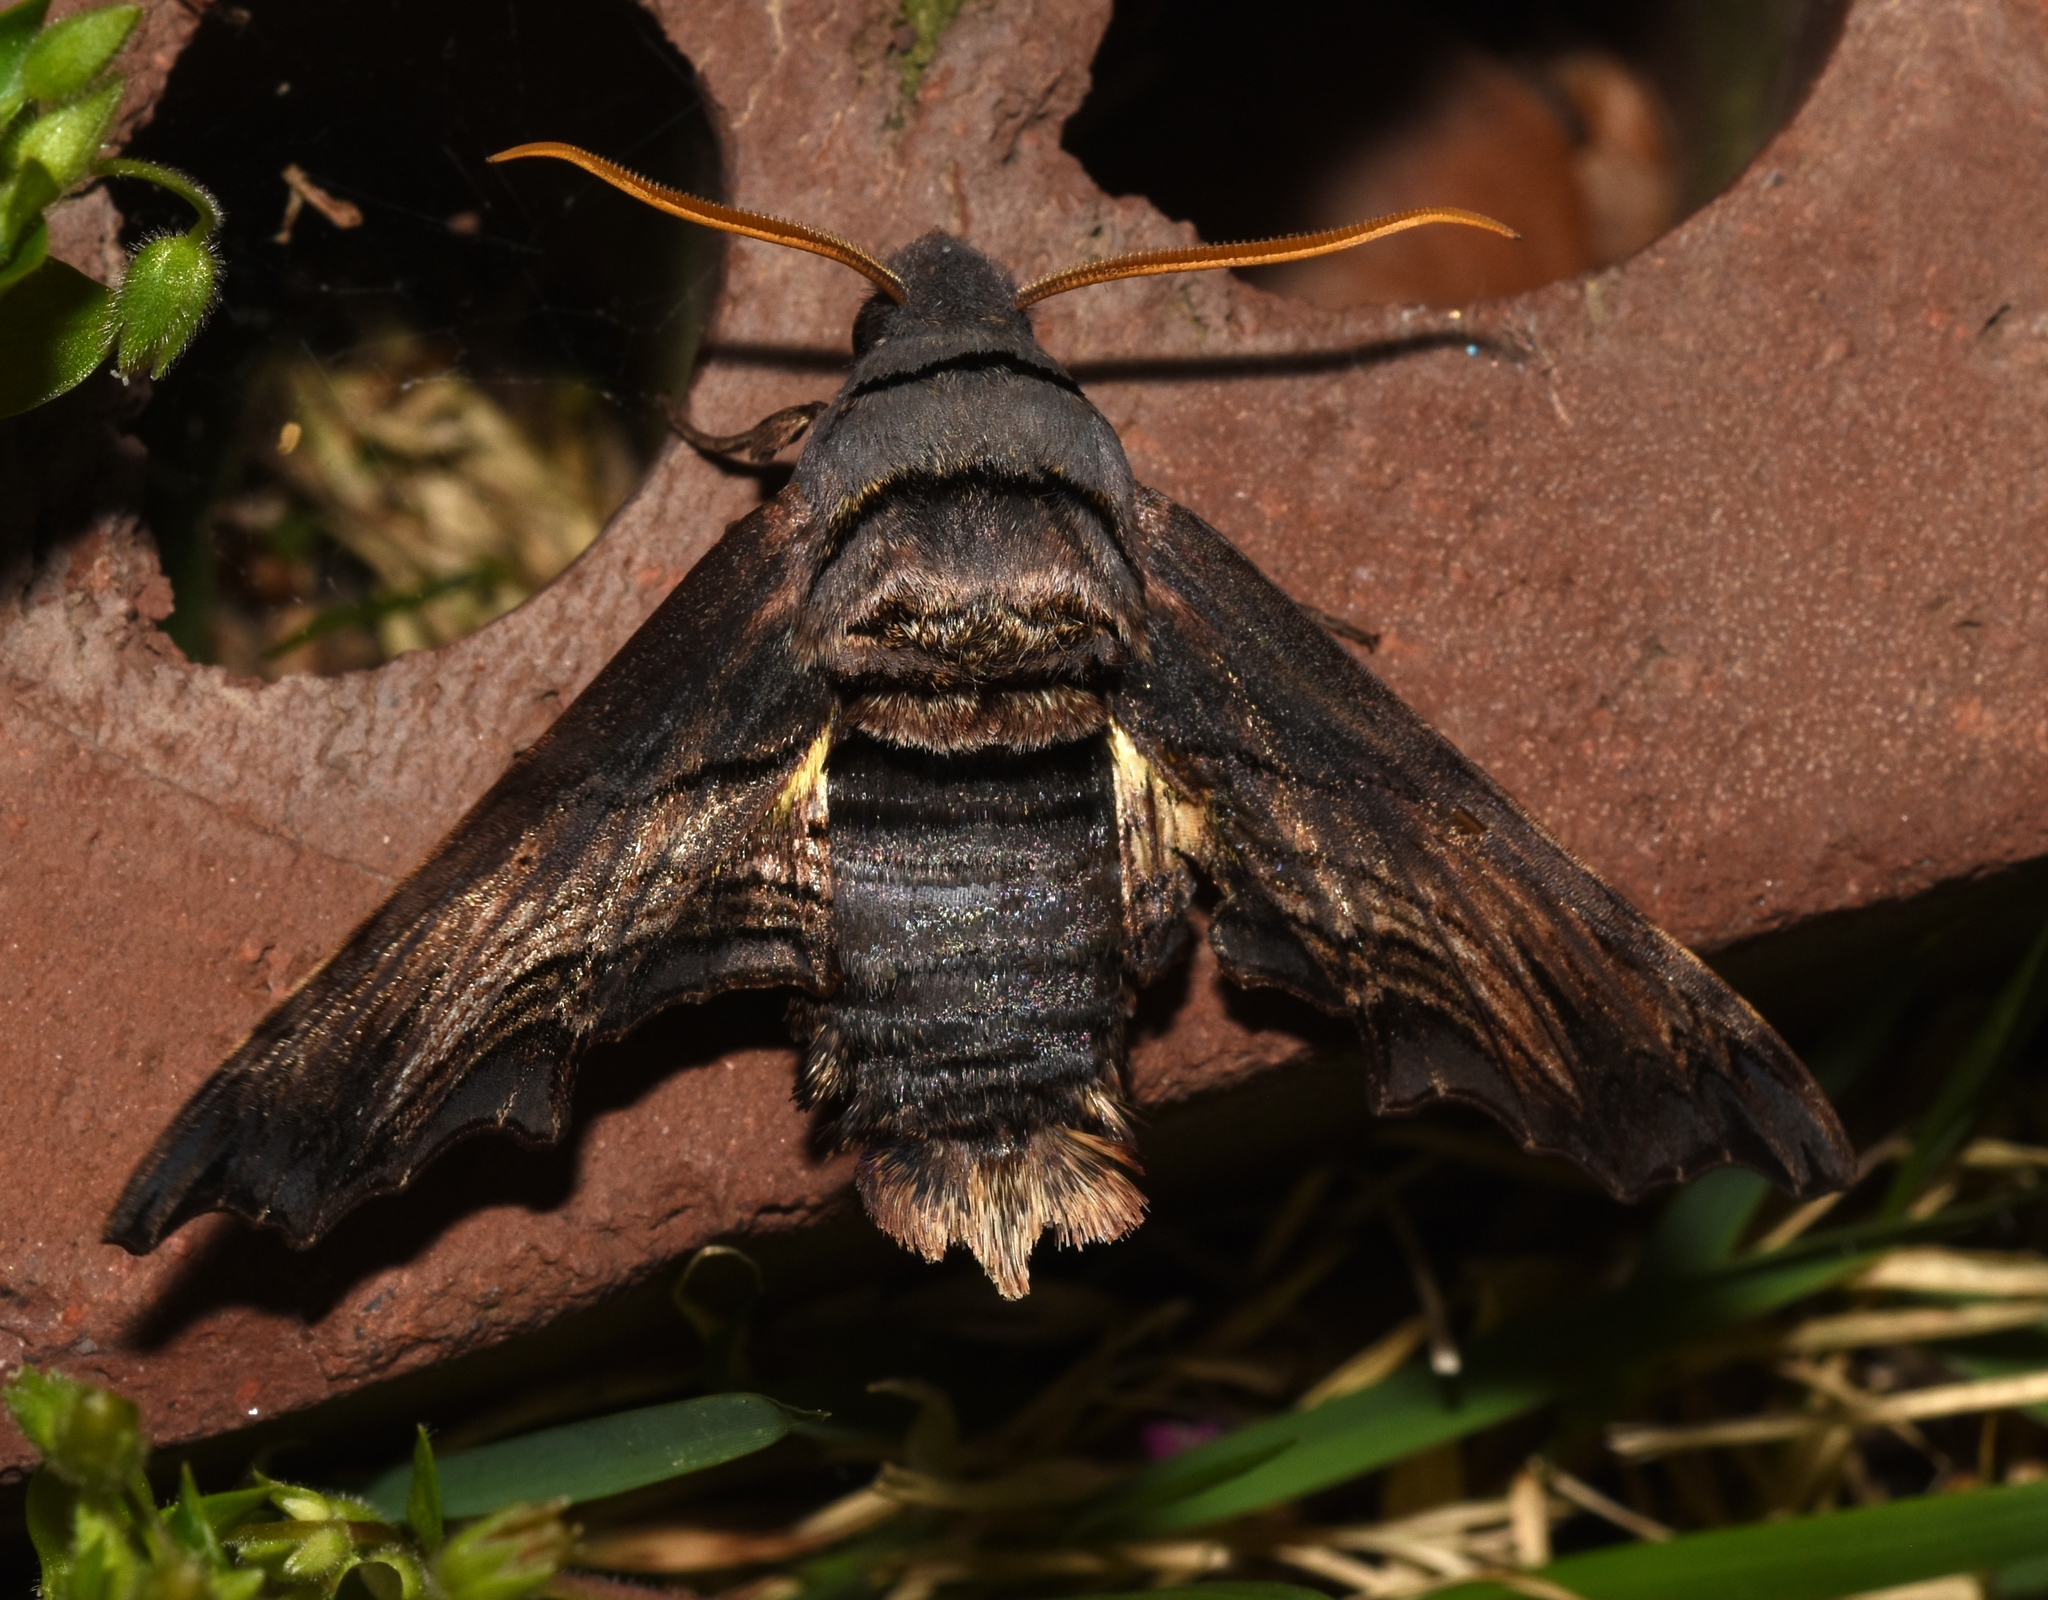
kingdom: Animalia
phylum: Arthropoda
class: Insecta
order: Lepidoptera
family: Sphingidae
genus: Sphecodina
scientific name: Sphecodina abbottii
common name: Abbott's sphinx
